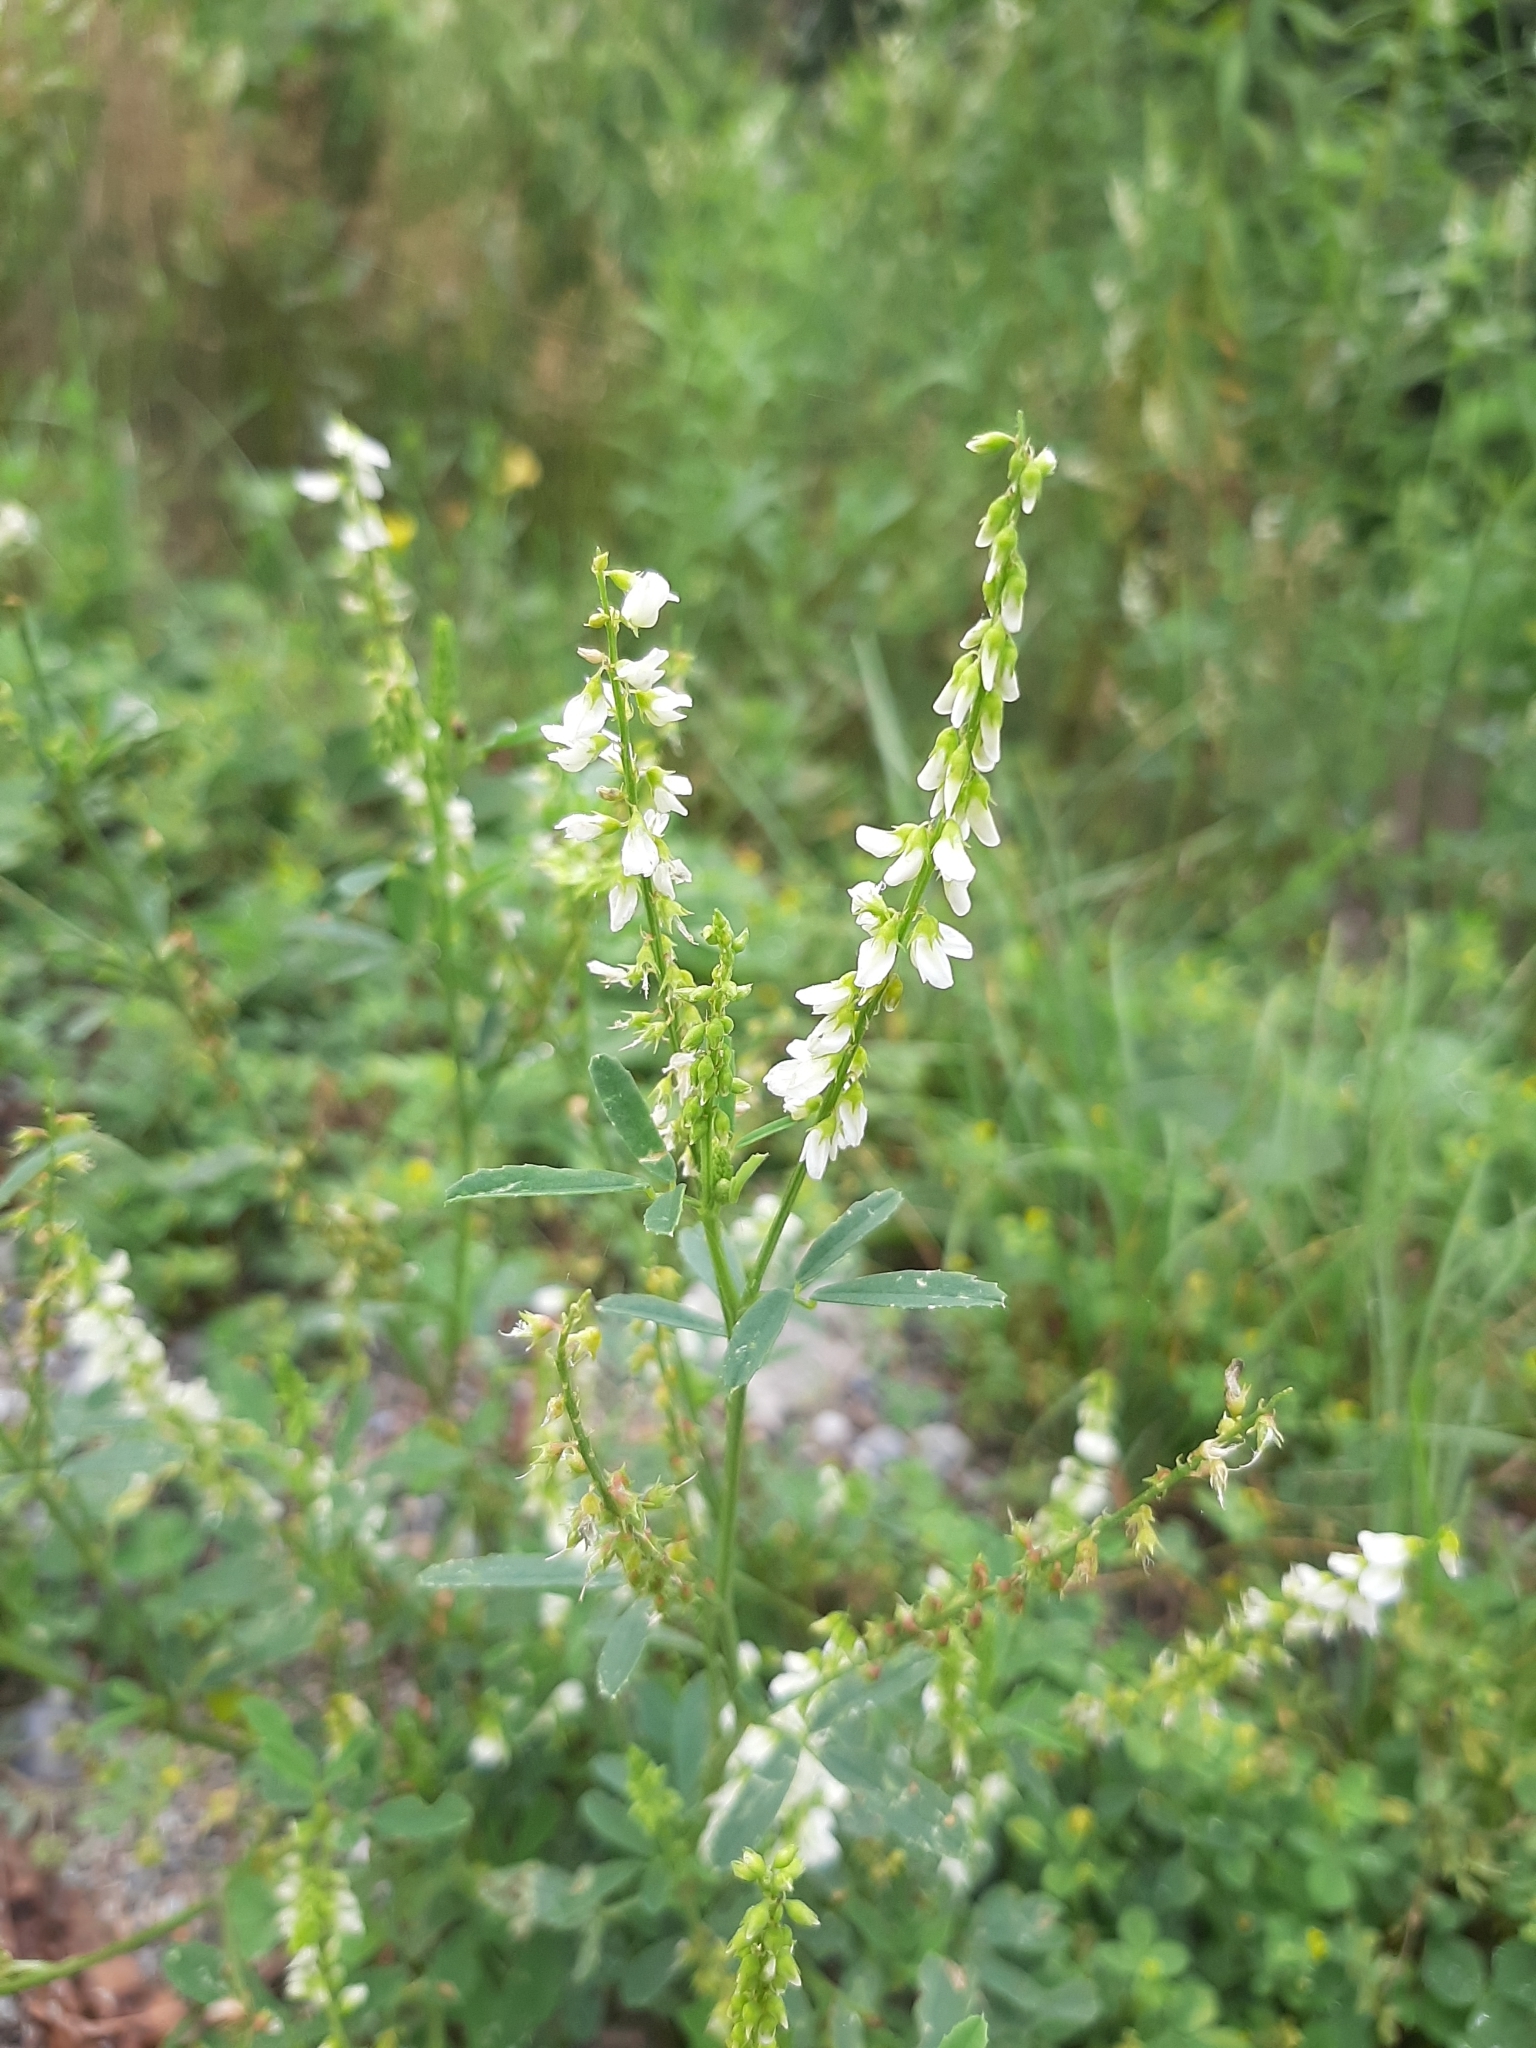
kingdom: Plantae
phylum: Tracheophyta
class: Magnoliopsida
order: Fabales
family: Fabaceae
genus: Melilotus
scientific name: Melilotus albus
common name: White melilot
